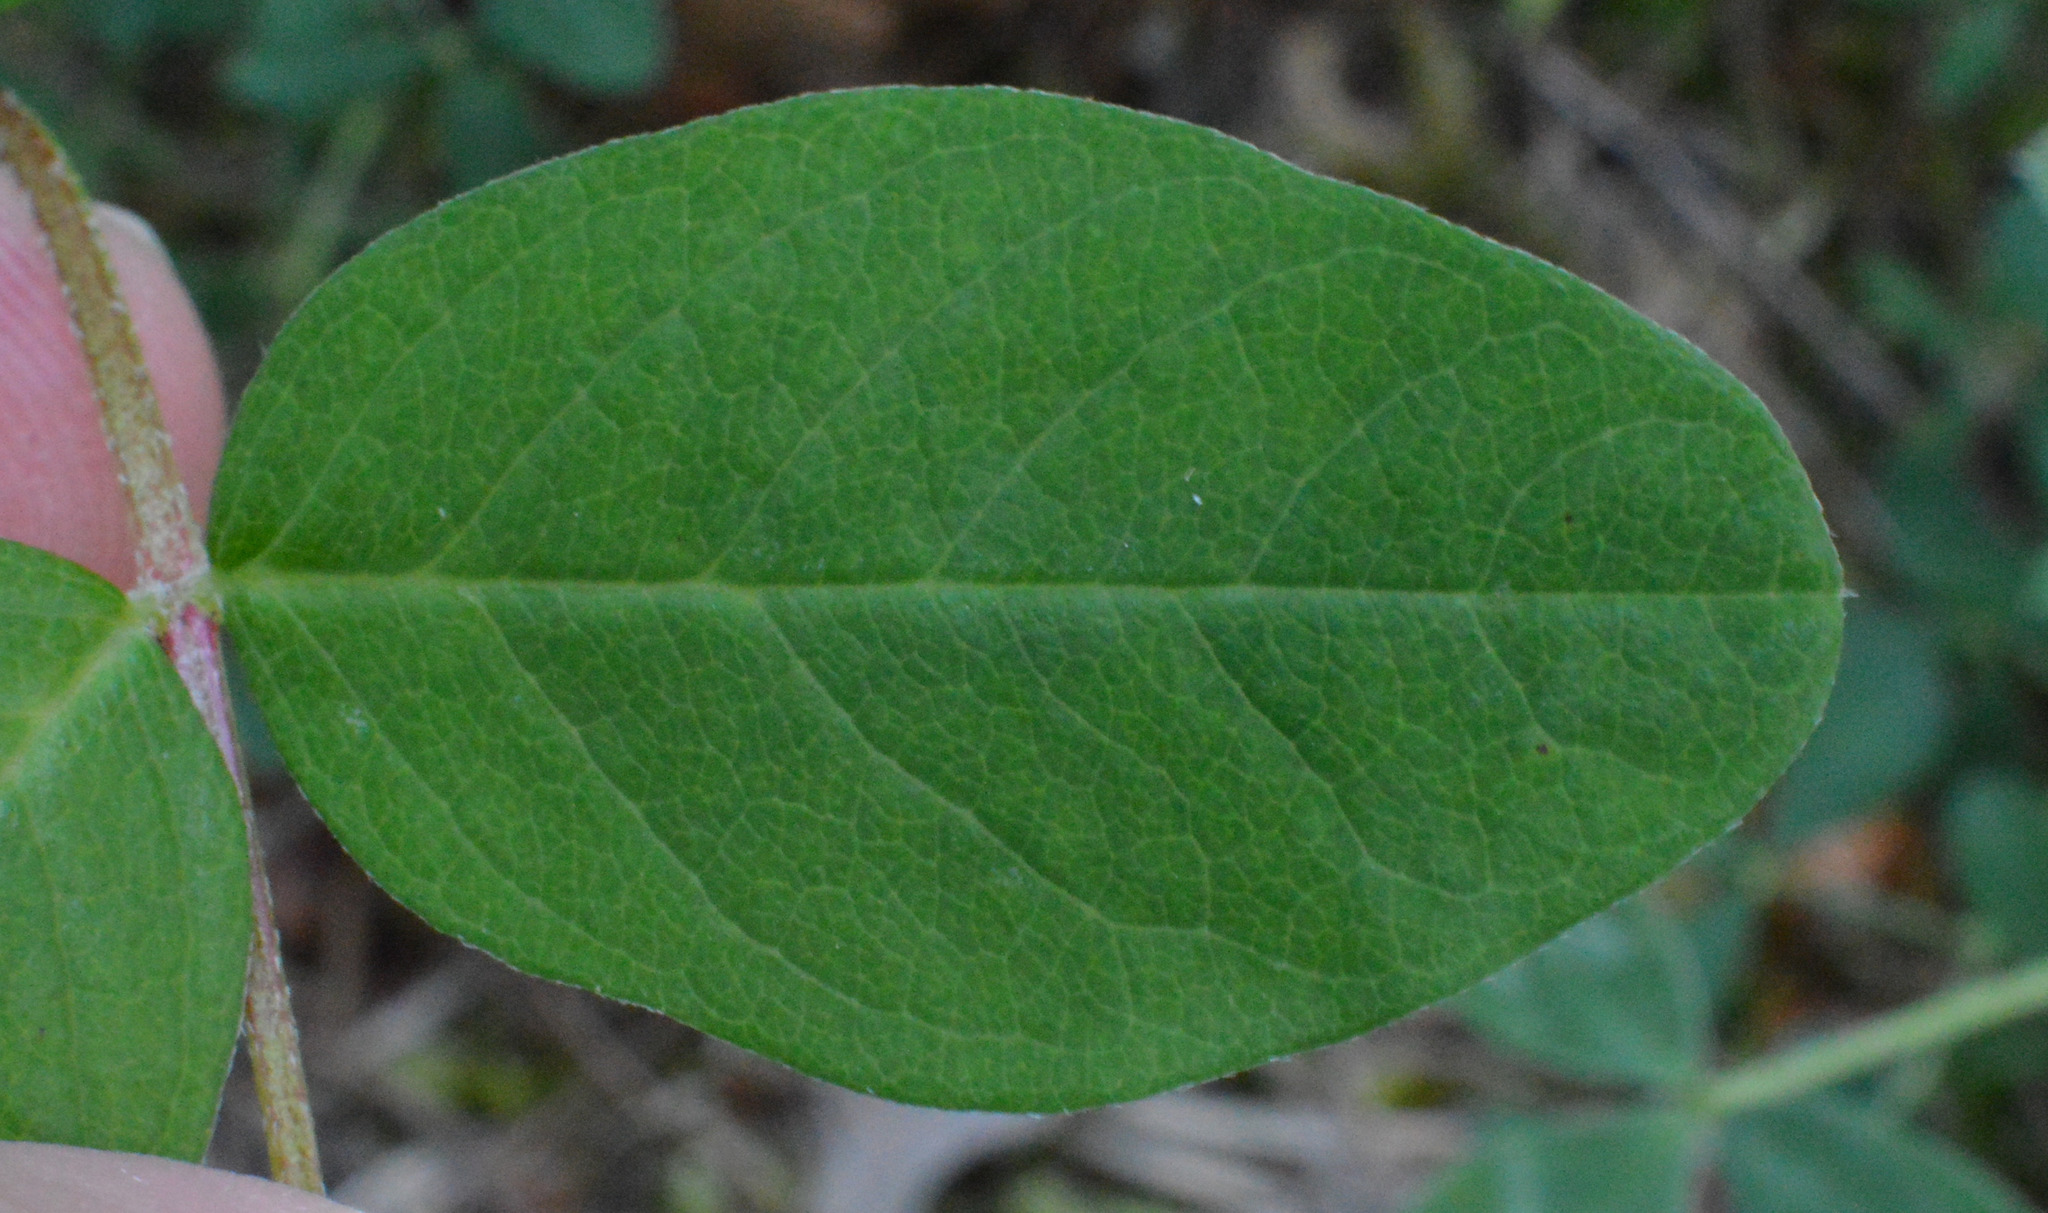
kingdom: Plantae
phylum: Tracheophyta
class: Magnoliopsida
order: Fabales
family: Fabaceae
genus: Astragalus
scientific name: Astragalus glycyphyllos
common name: Wild liquorice
